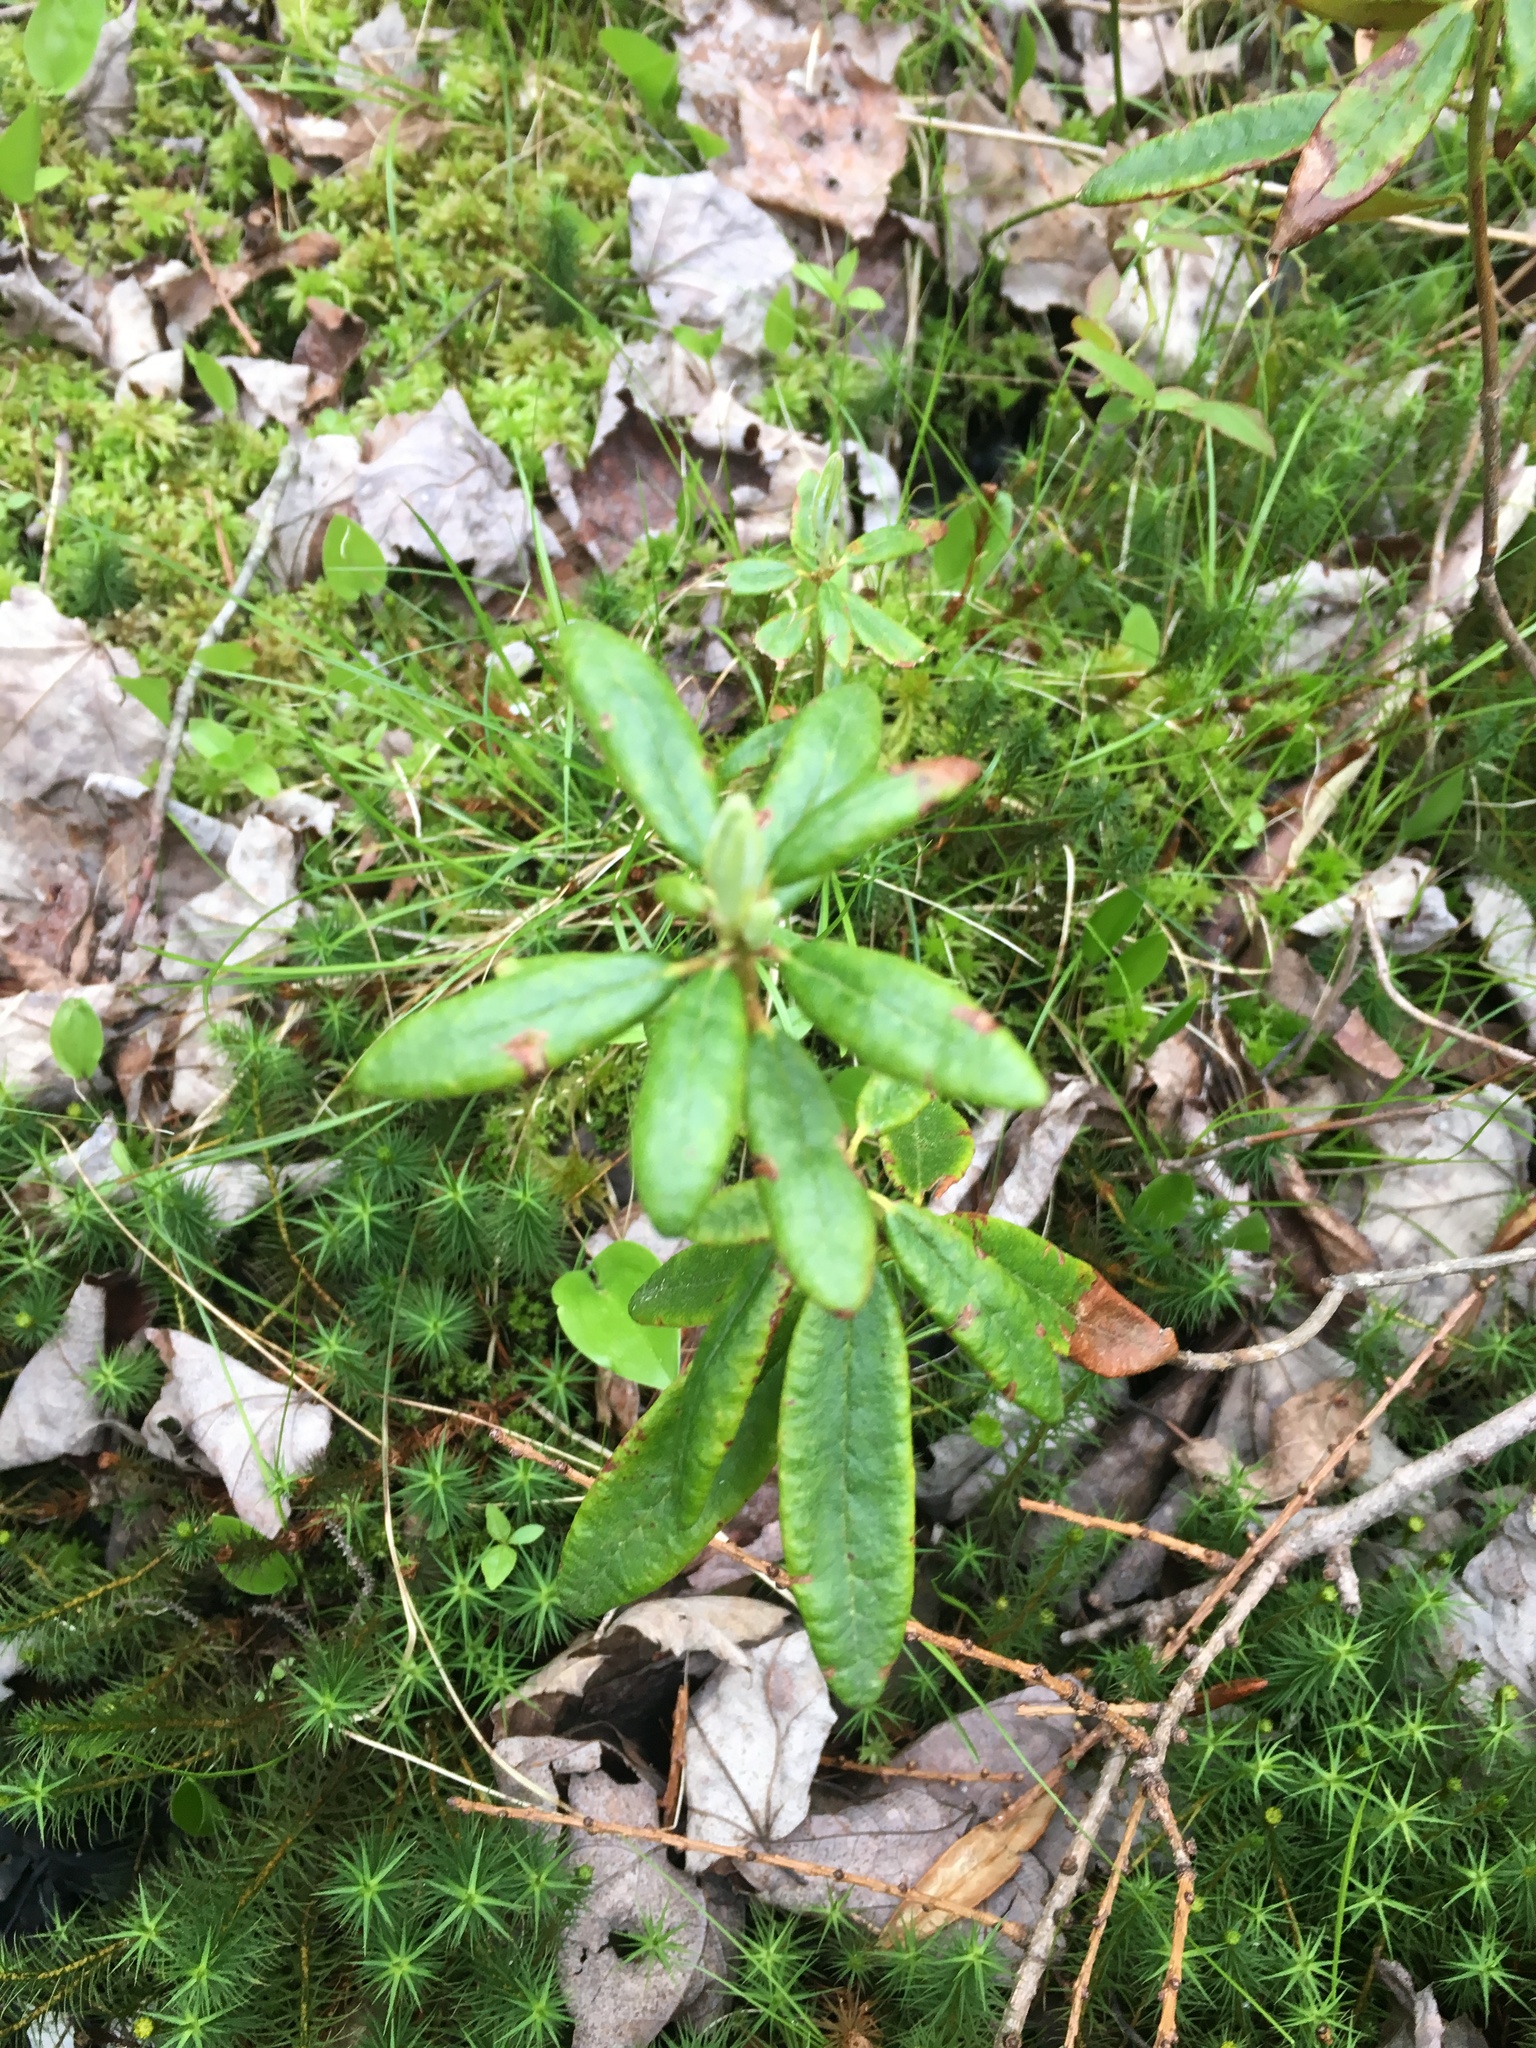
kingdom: Plantae
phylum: Tracheophyta
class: Magnoliopsida
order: Ericales
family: Ericaceae
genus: Rhododendron
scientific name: Rhododendron groenlandicum
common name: Bog labrador tea
